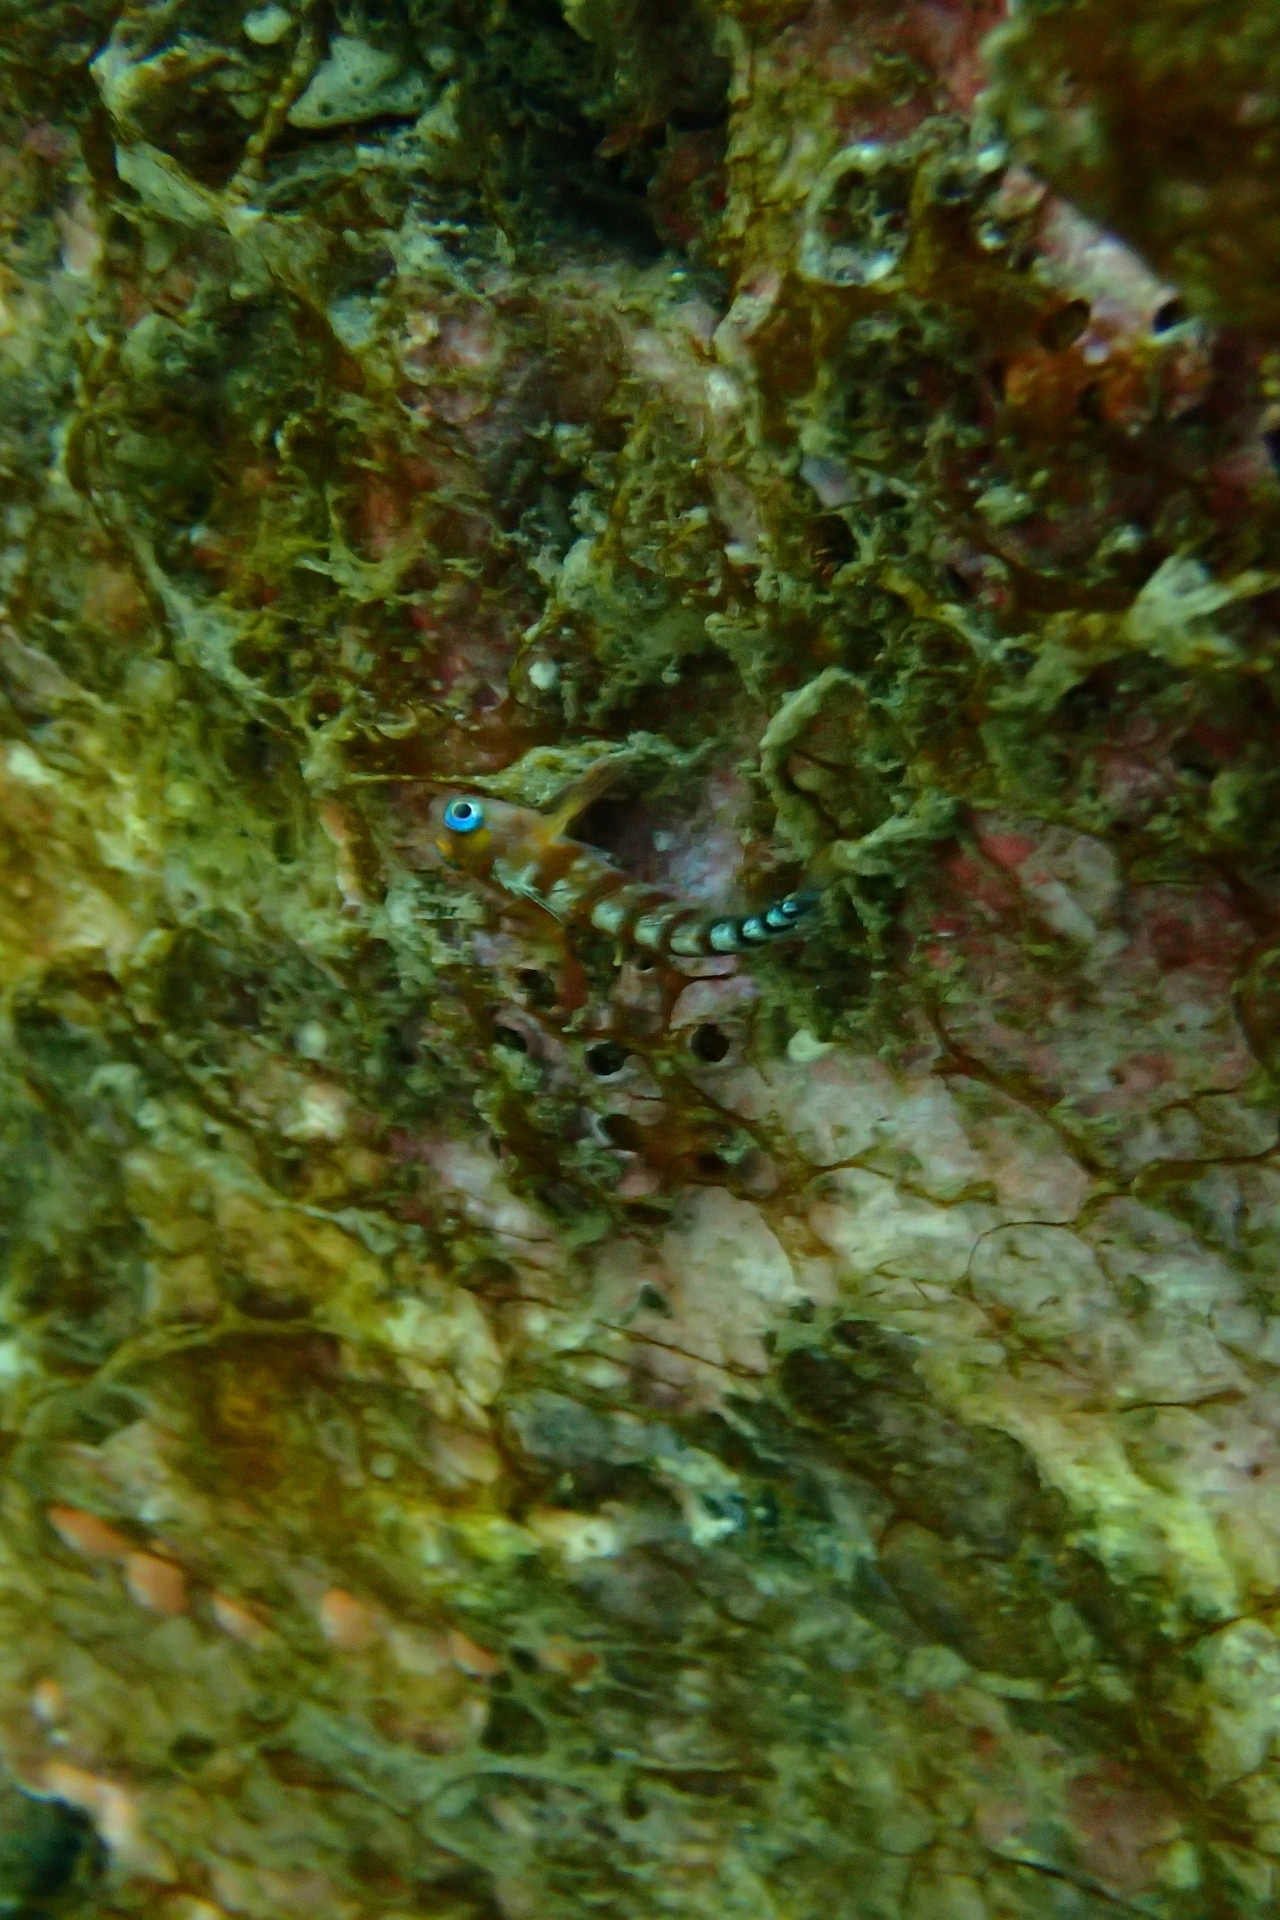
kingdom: Animalia
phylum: Chordata
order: Perciformes
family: Tripterygiidae
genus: Notoclinops
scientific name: Notoclinops segmentatus
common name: Blue-eyed triplefin
